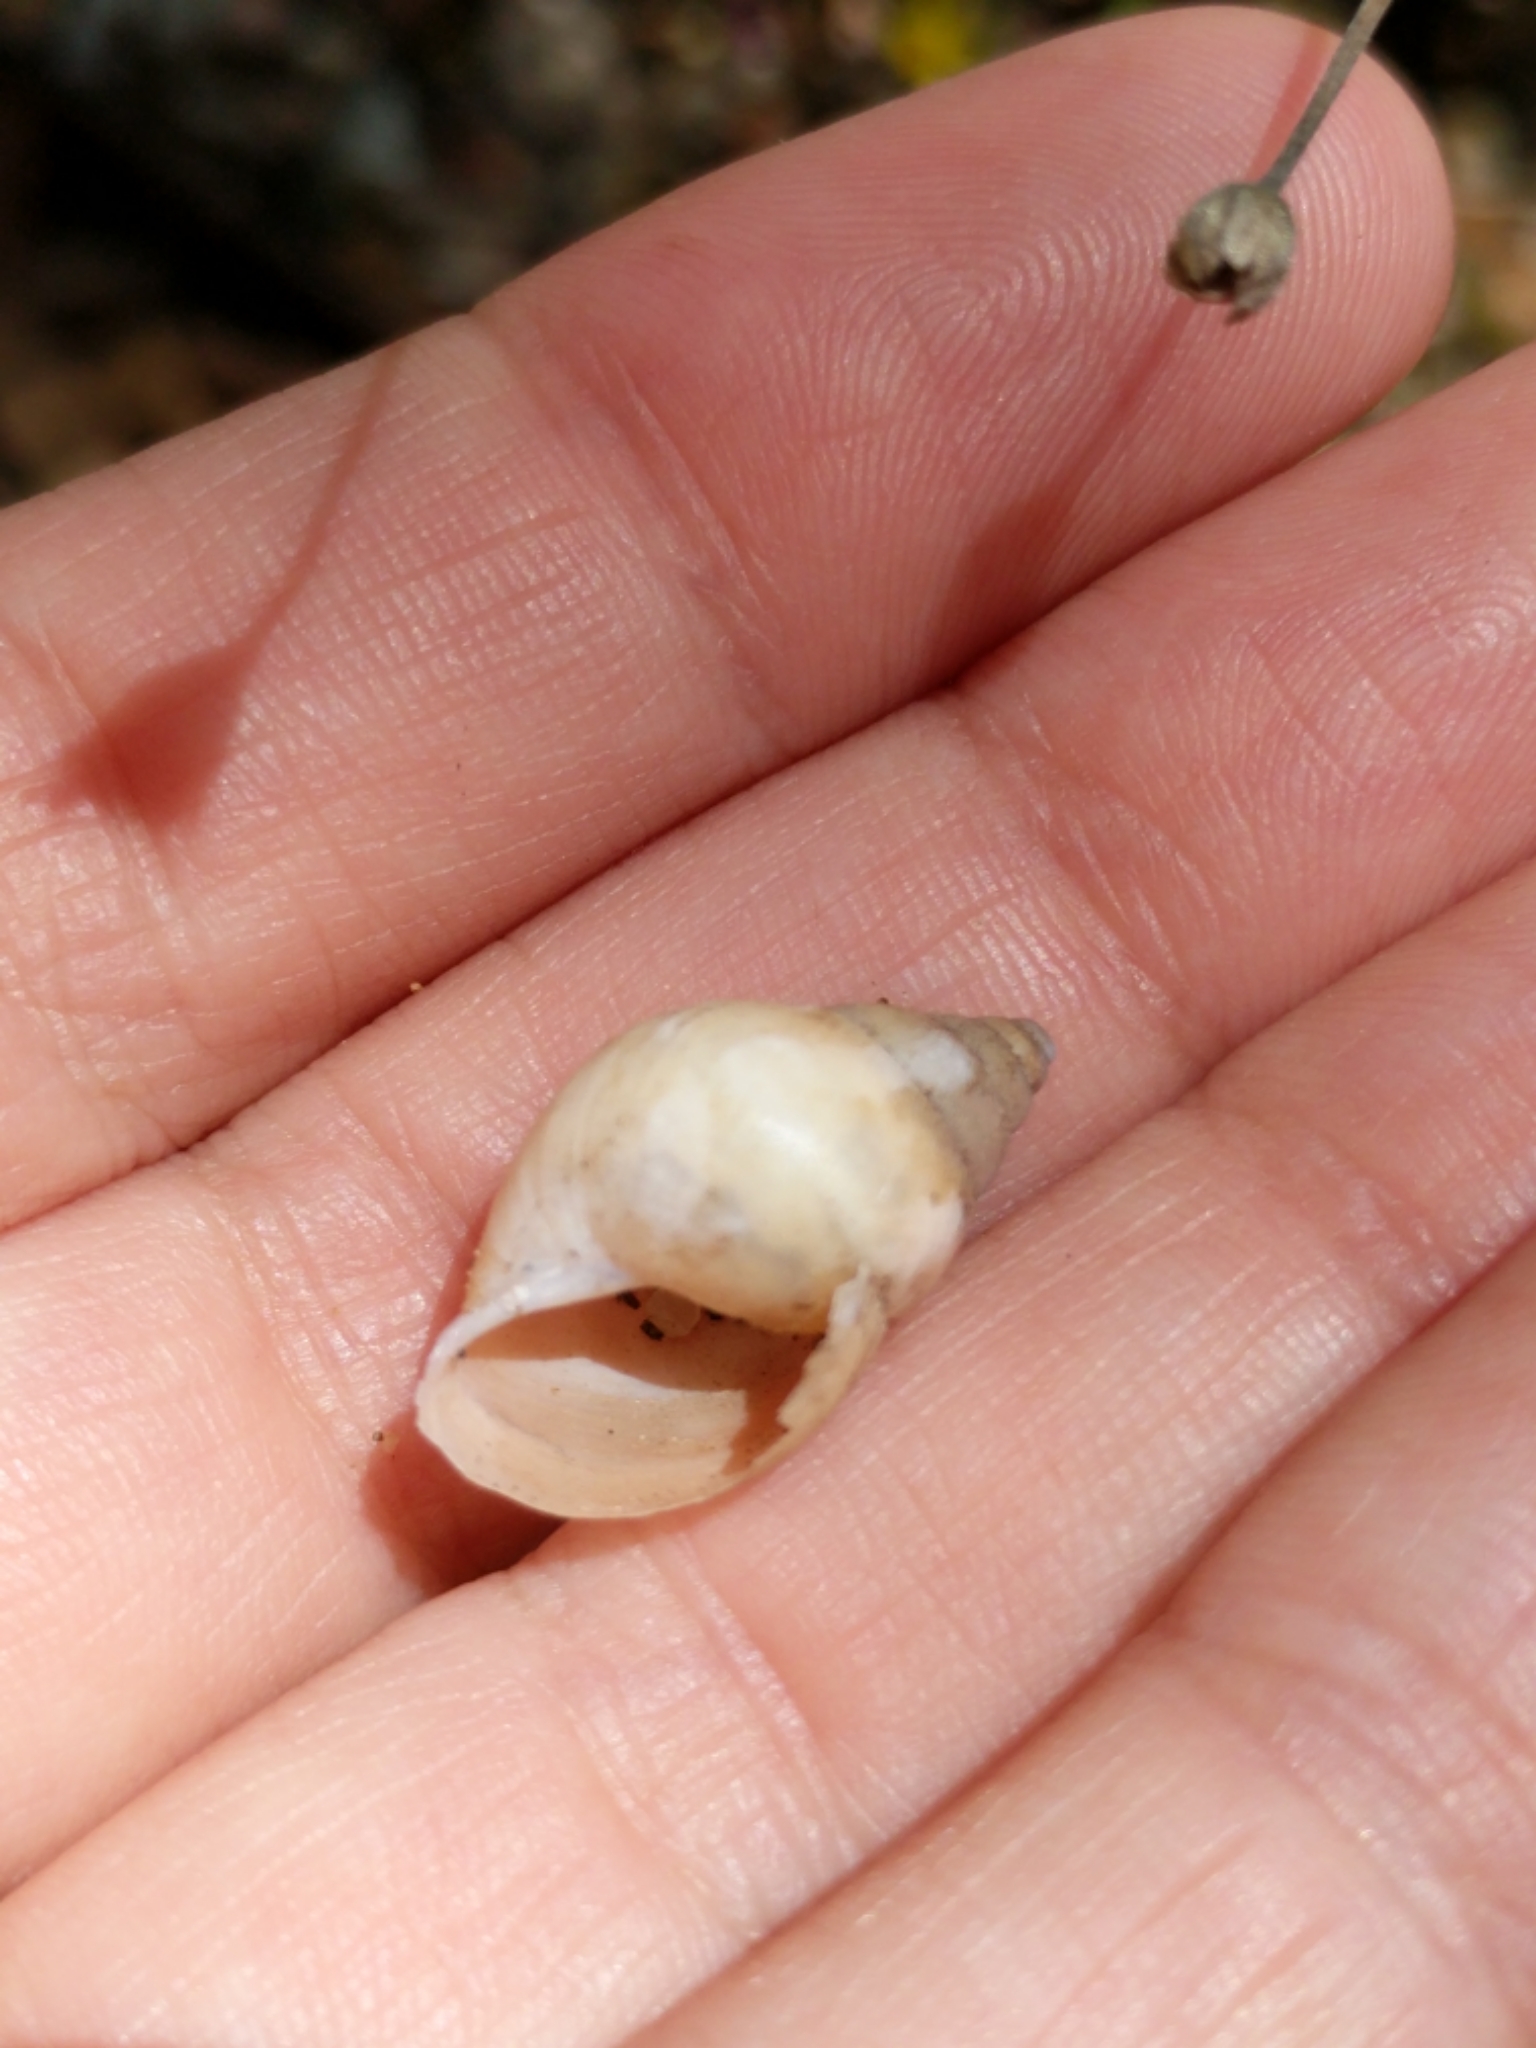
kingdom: Animalia
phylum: Mollusca
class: Gastropoda
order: Stylommatophora
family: Bulimulidae
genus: Rabdotus
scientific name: Rabdotus mooreanus
